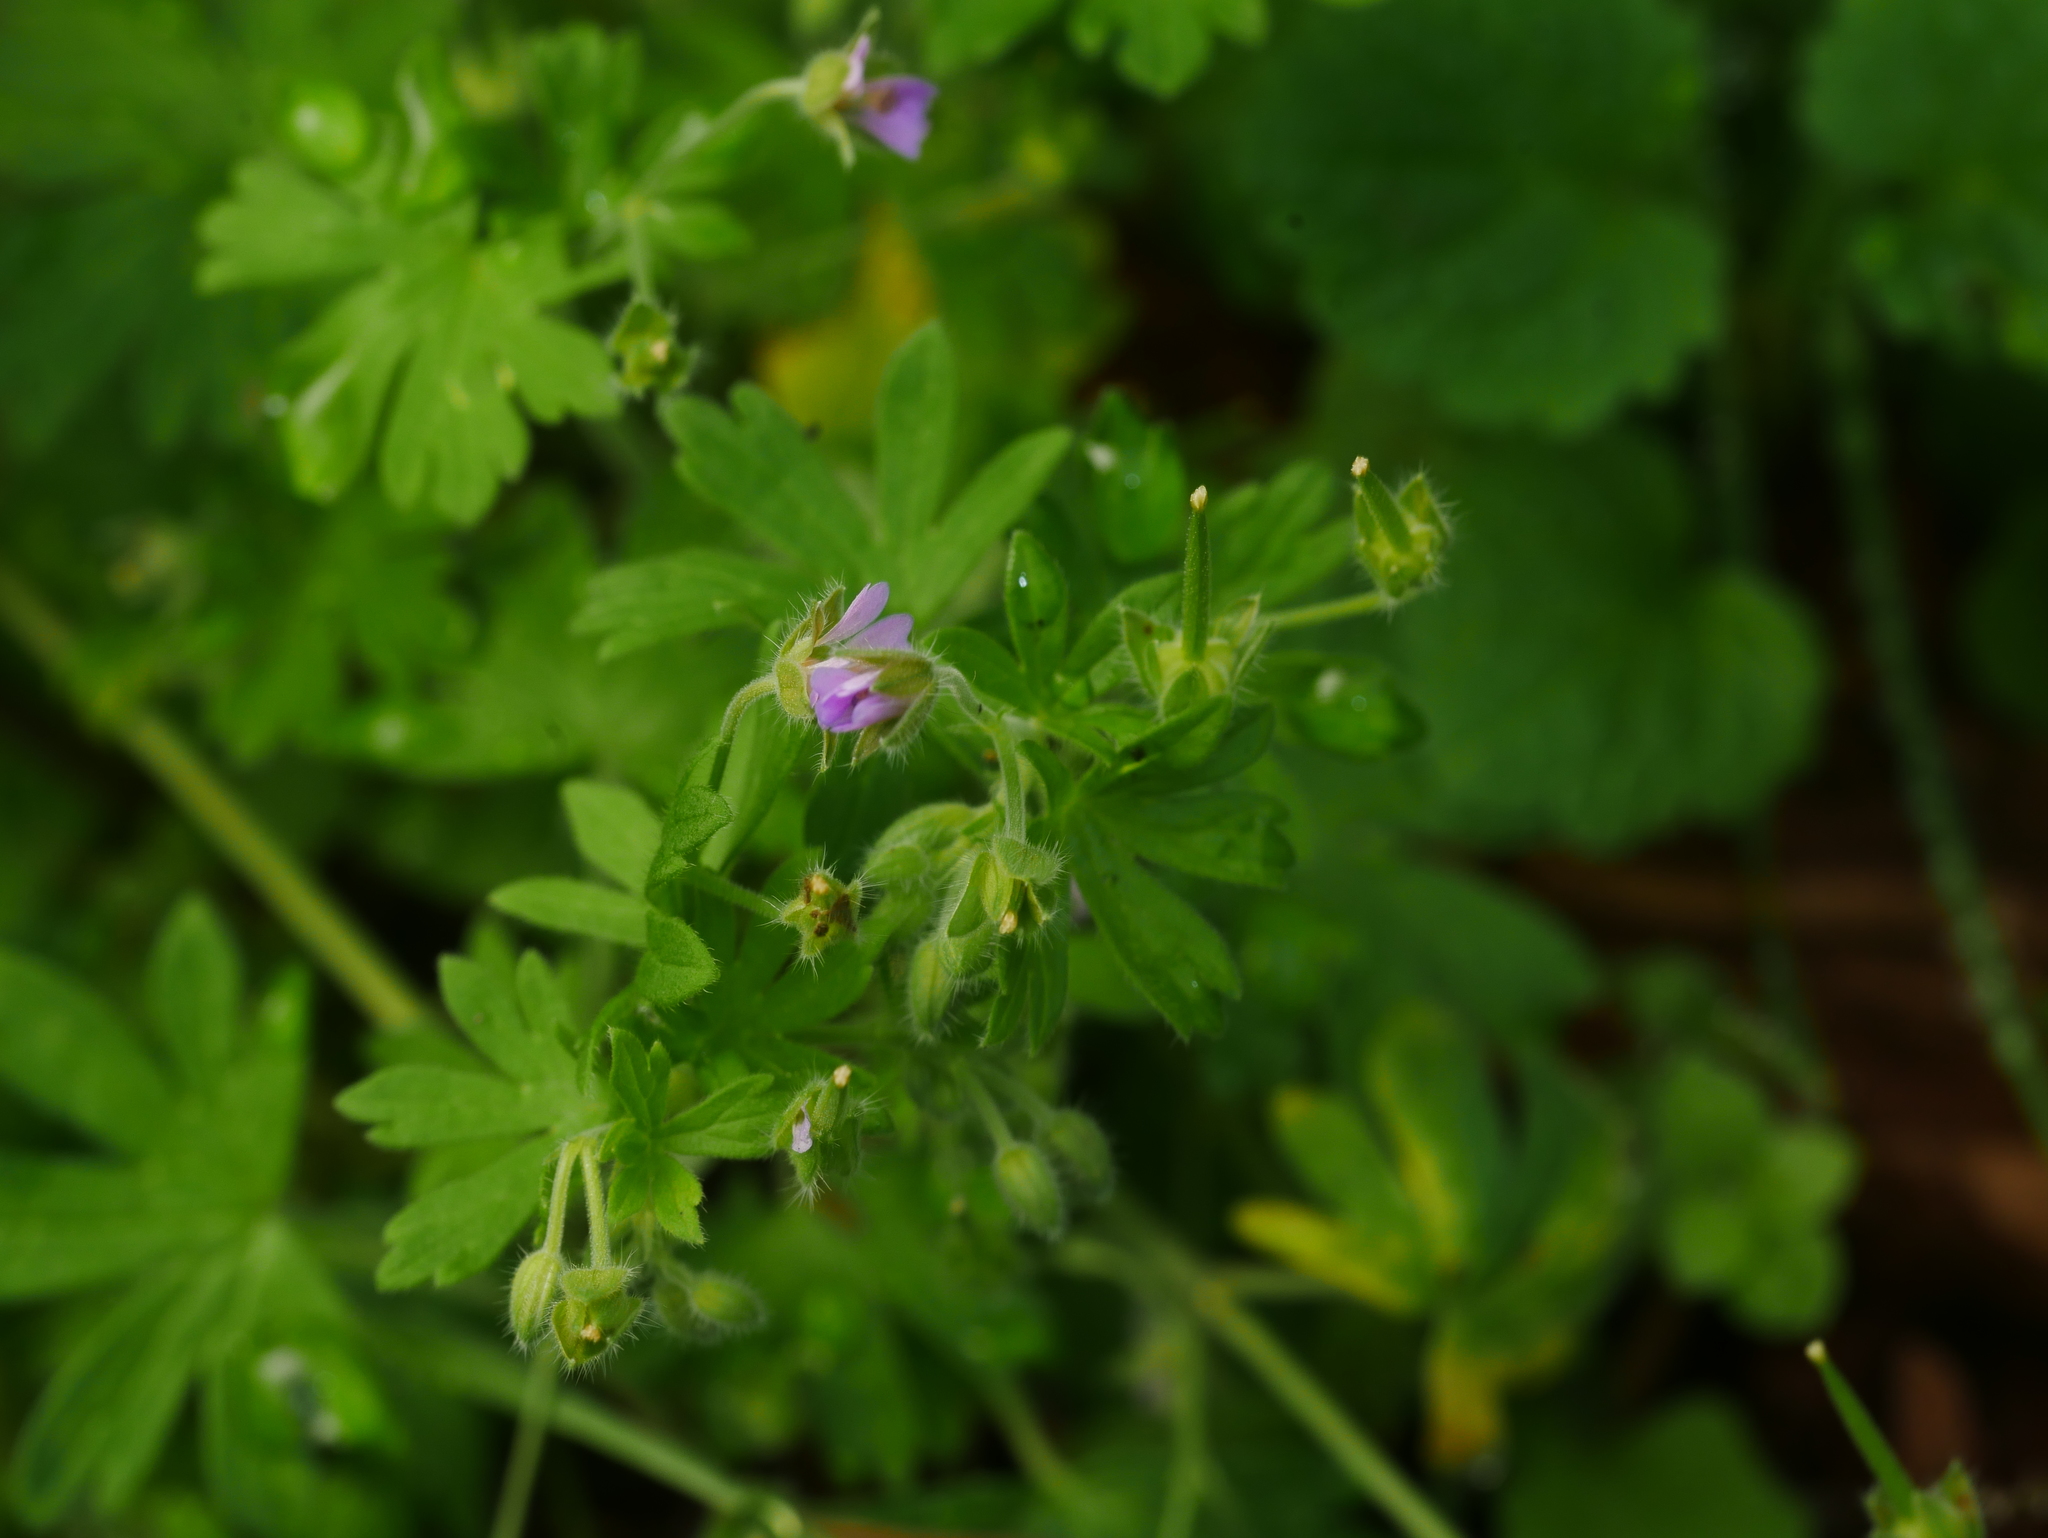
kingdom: Plantae
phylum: Tracheophyta
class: Magnoliopsida
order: Geraniales
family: Geraniaceae
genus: Geranium
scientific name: Geranium pusillum
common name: Small geranium
